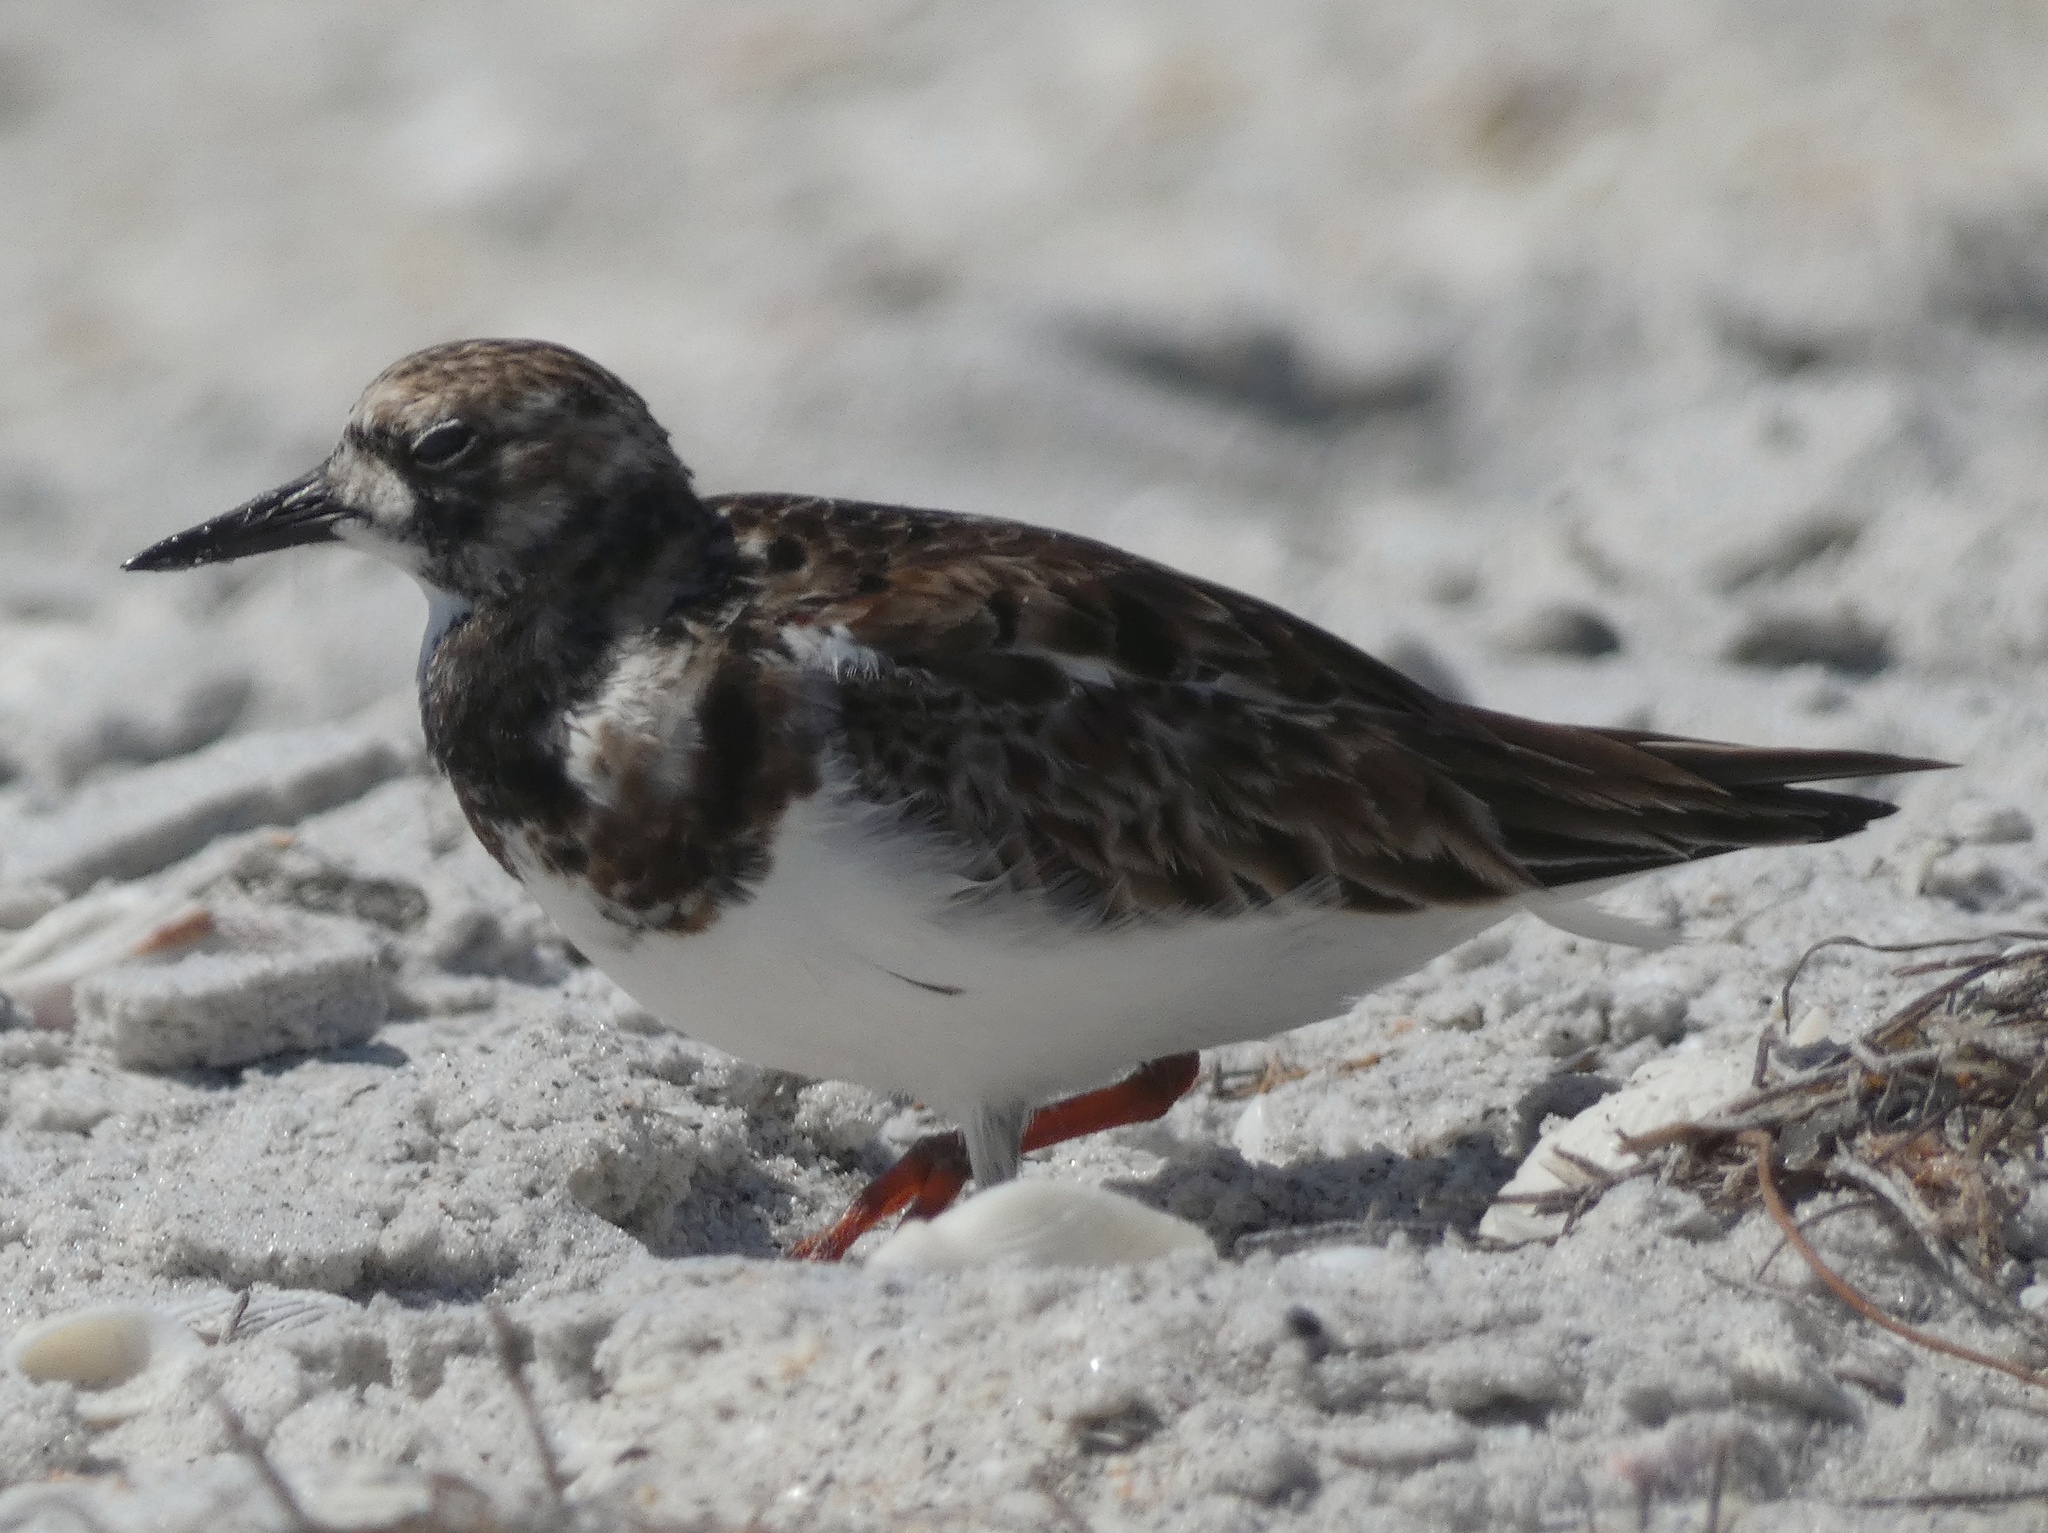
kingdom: Animalia
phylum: Chordata
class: Aves
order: Charadriiformes
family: Scolopacidae
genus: Arenaria
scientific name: Arenaria interpres
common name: Ruddy turnstone
